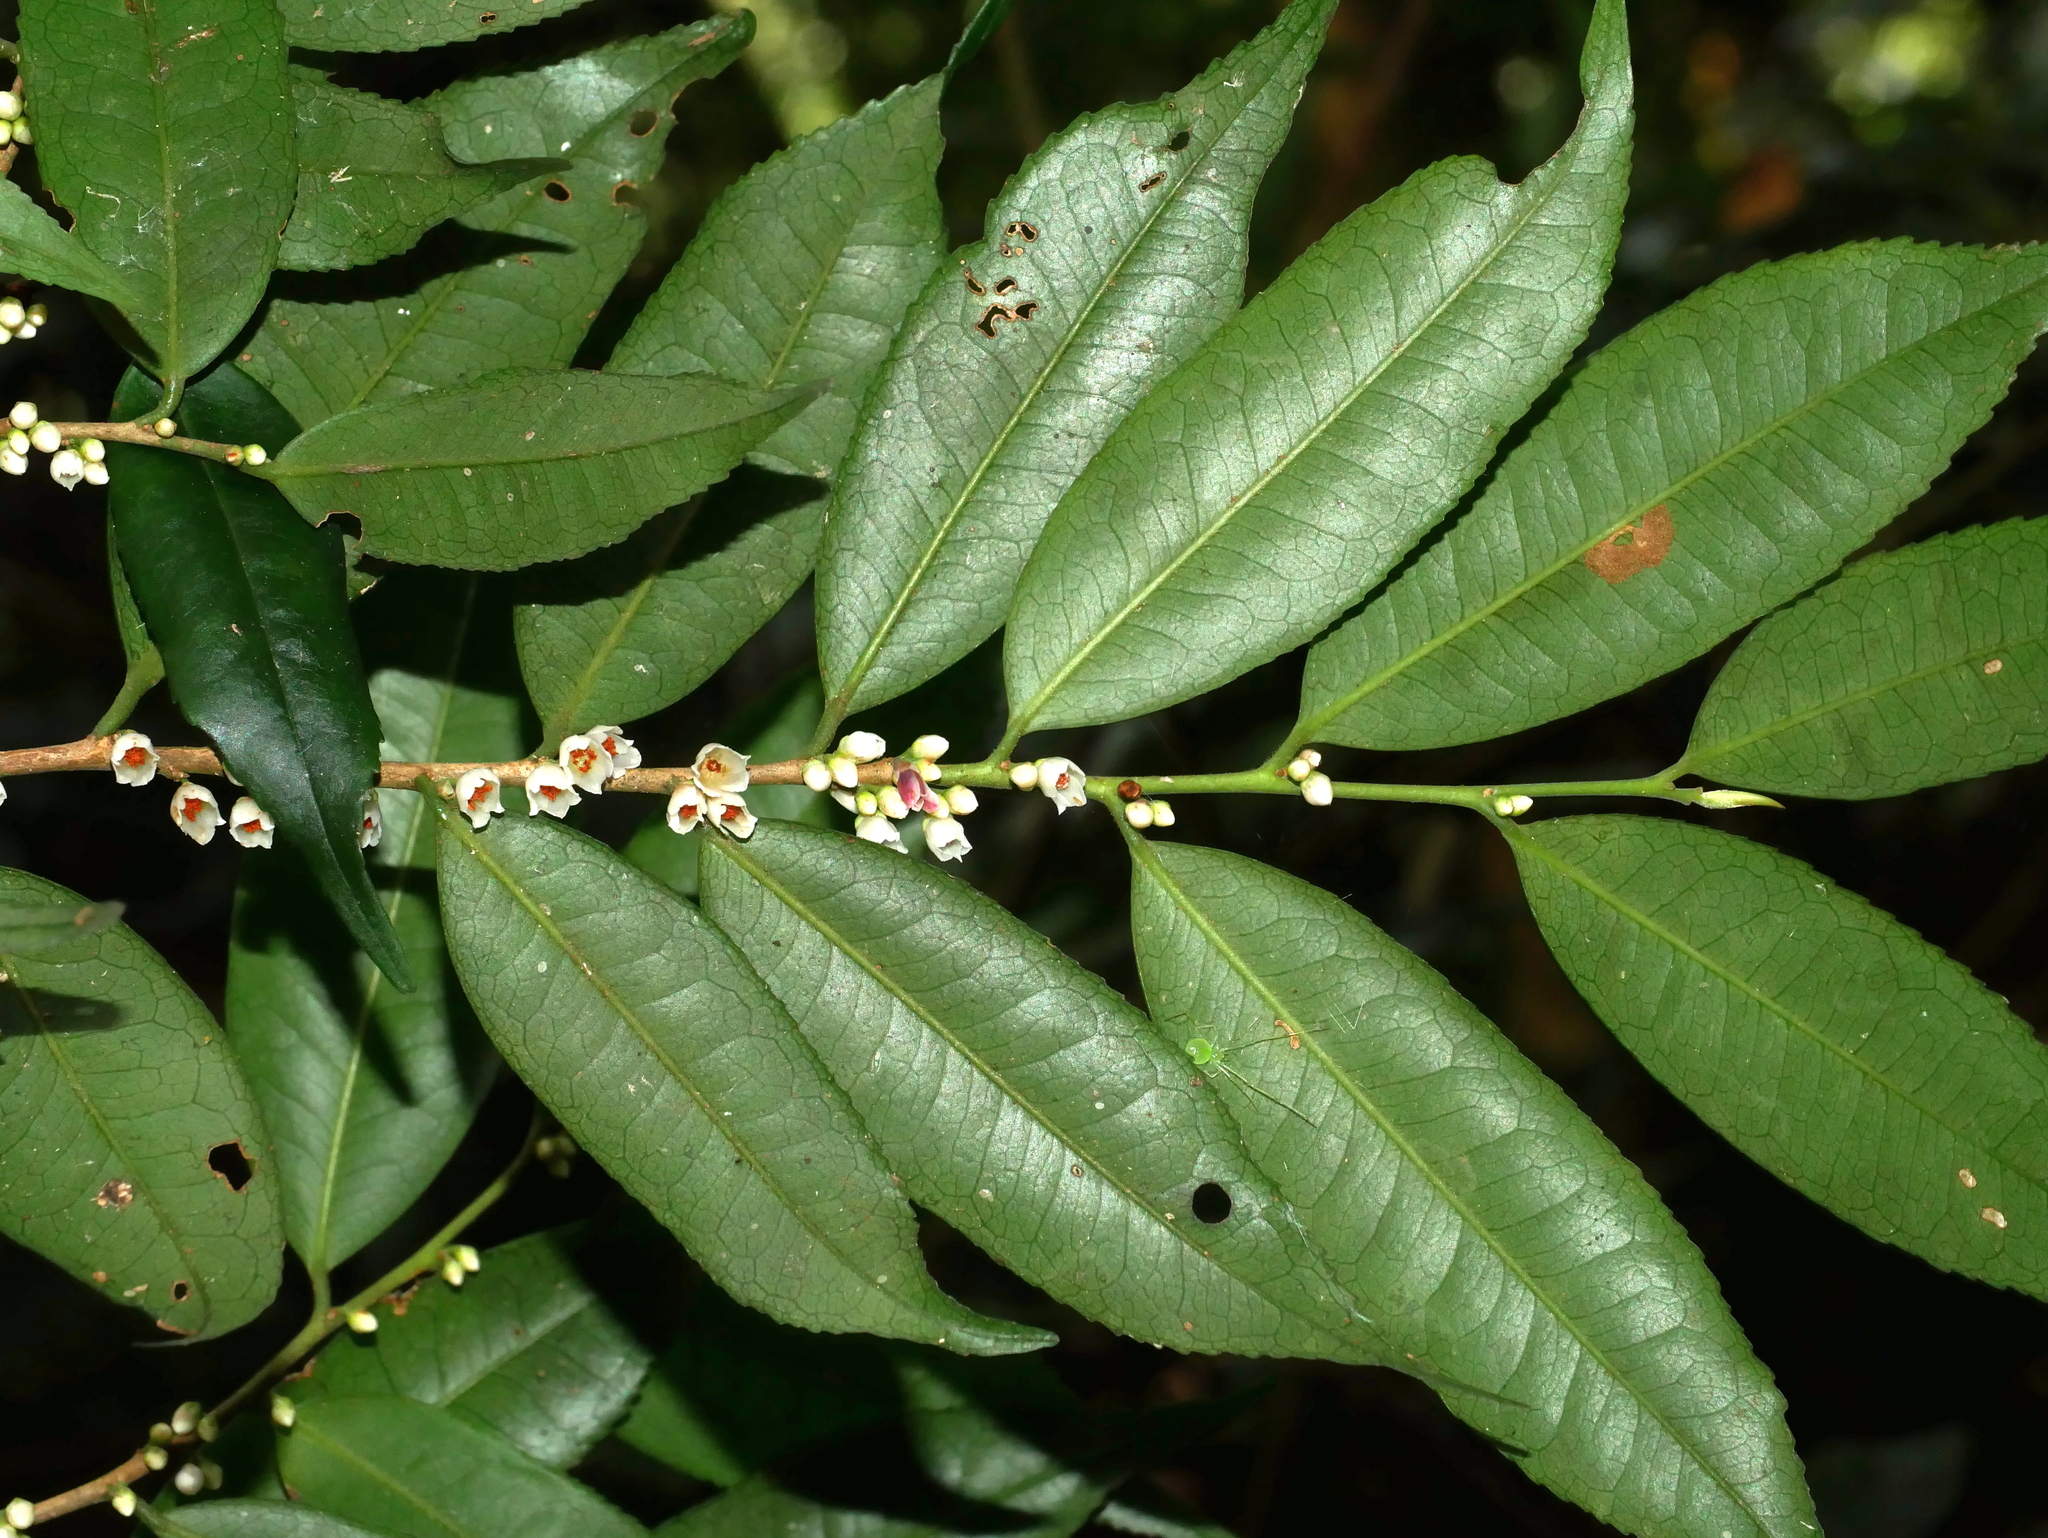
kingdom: Plantae
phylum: Tracheophyta
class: Magnoliopsida
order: Ericales
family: Pentaphylacaceae
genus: Eurya
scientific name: Eurya loquaiana
